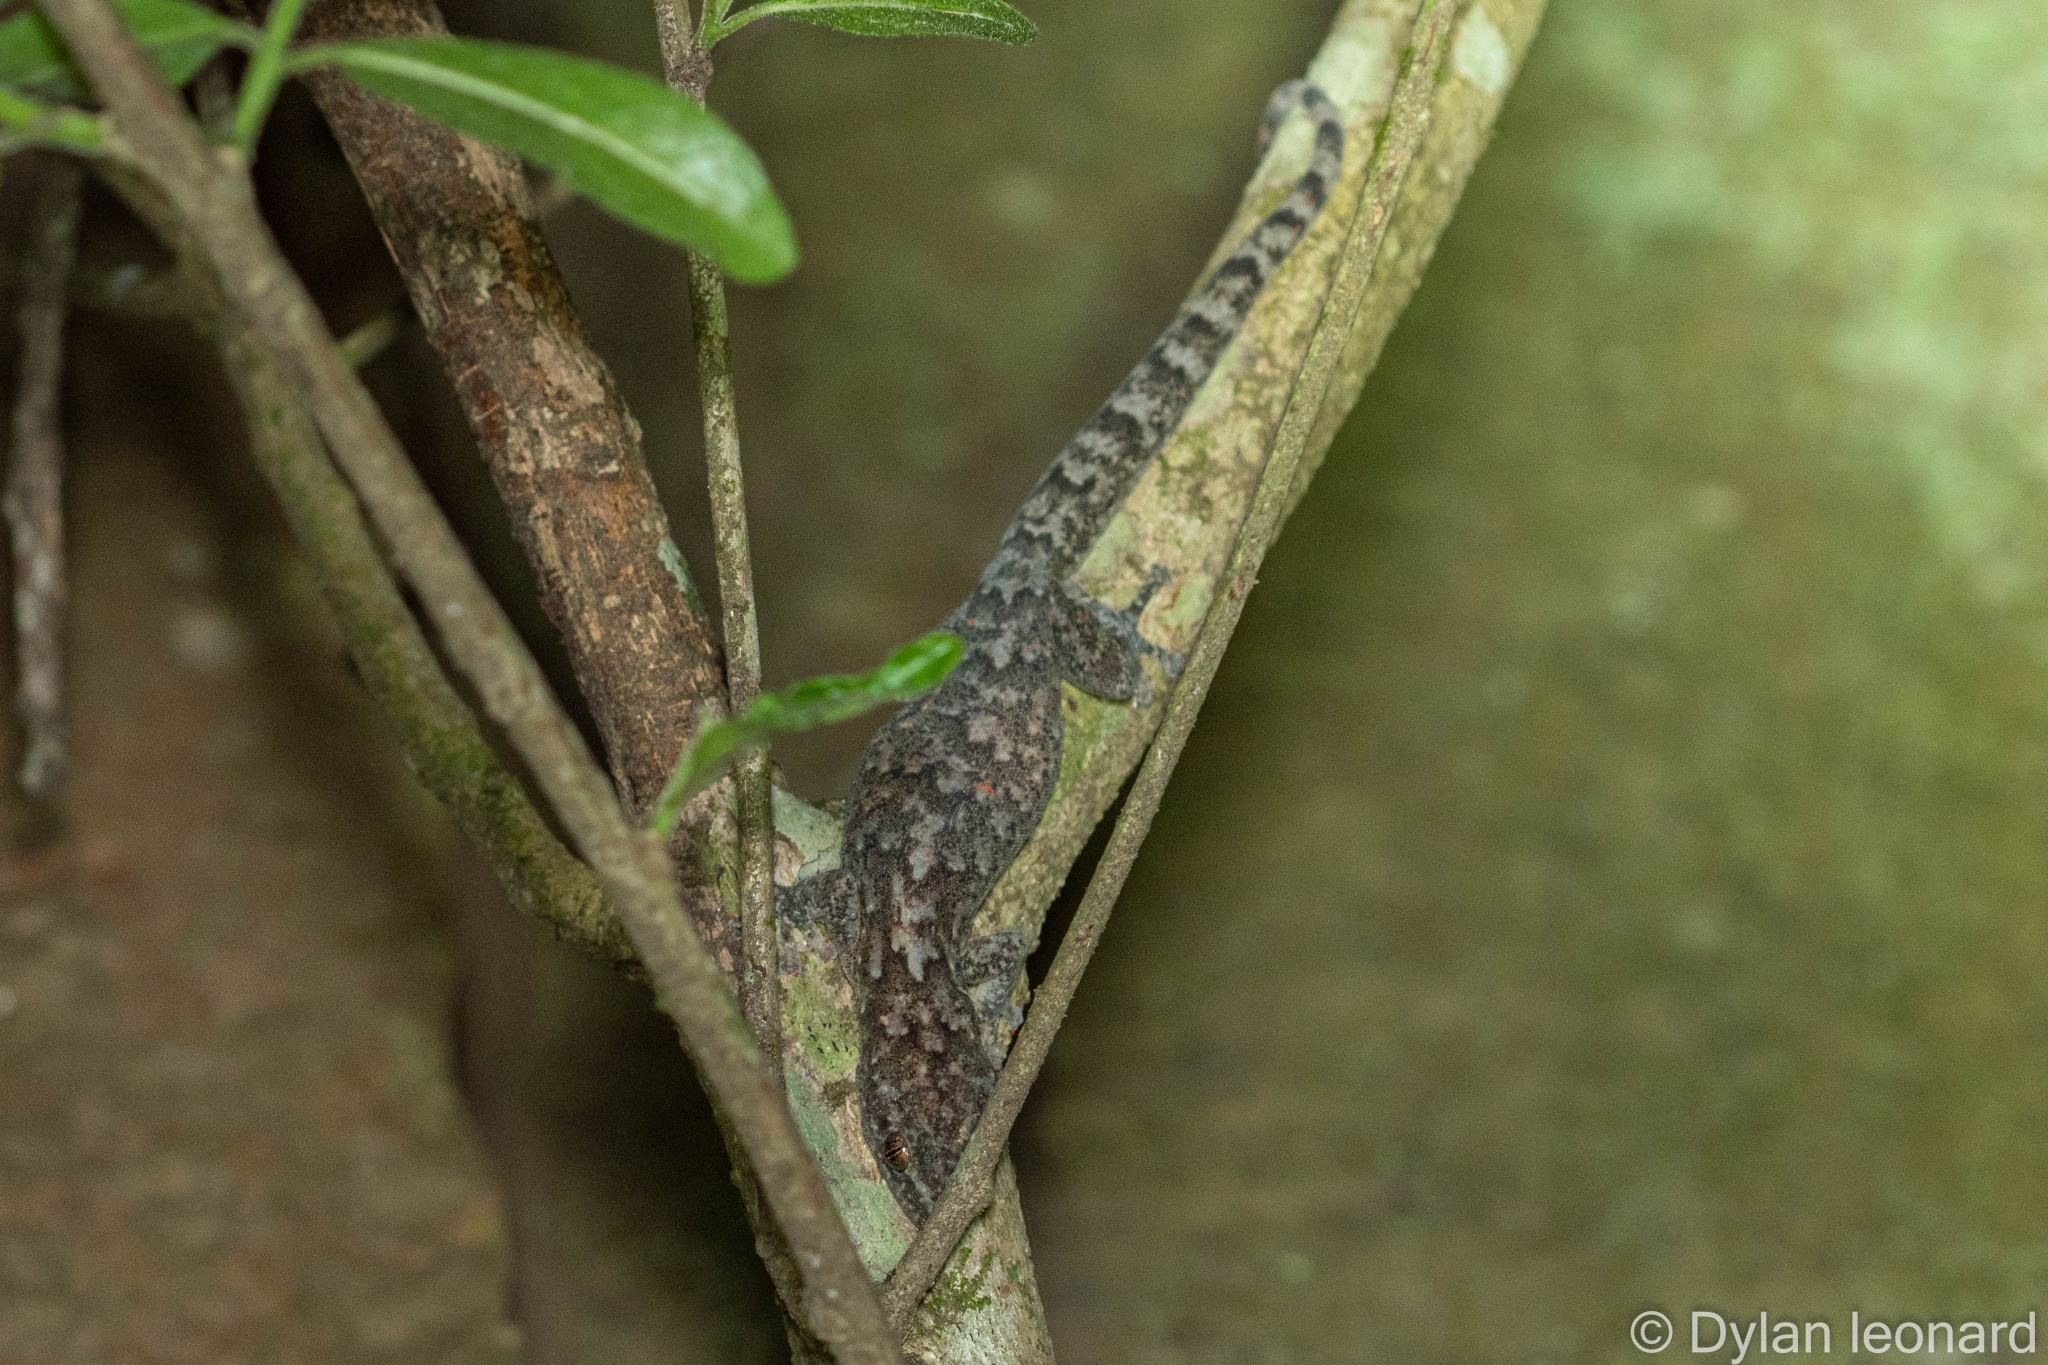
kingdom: Animalia
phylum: Chordata
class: Squamata
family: Gekkonidae
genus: Afroedura
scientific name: Afroedura pondolia
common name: Pondo flat gecko
